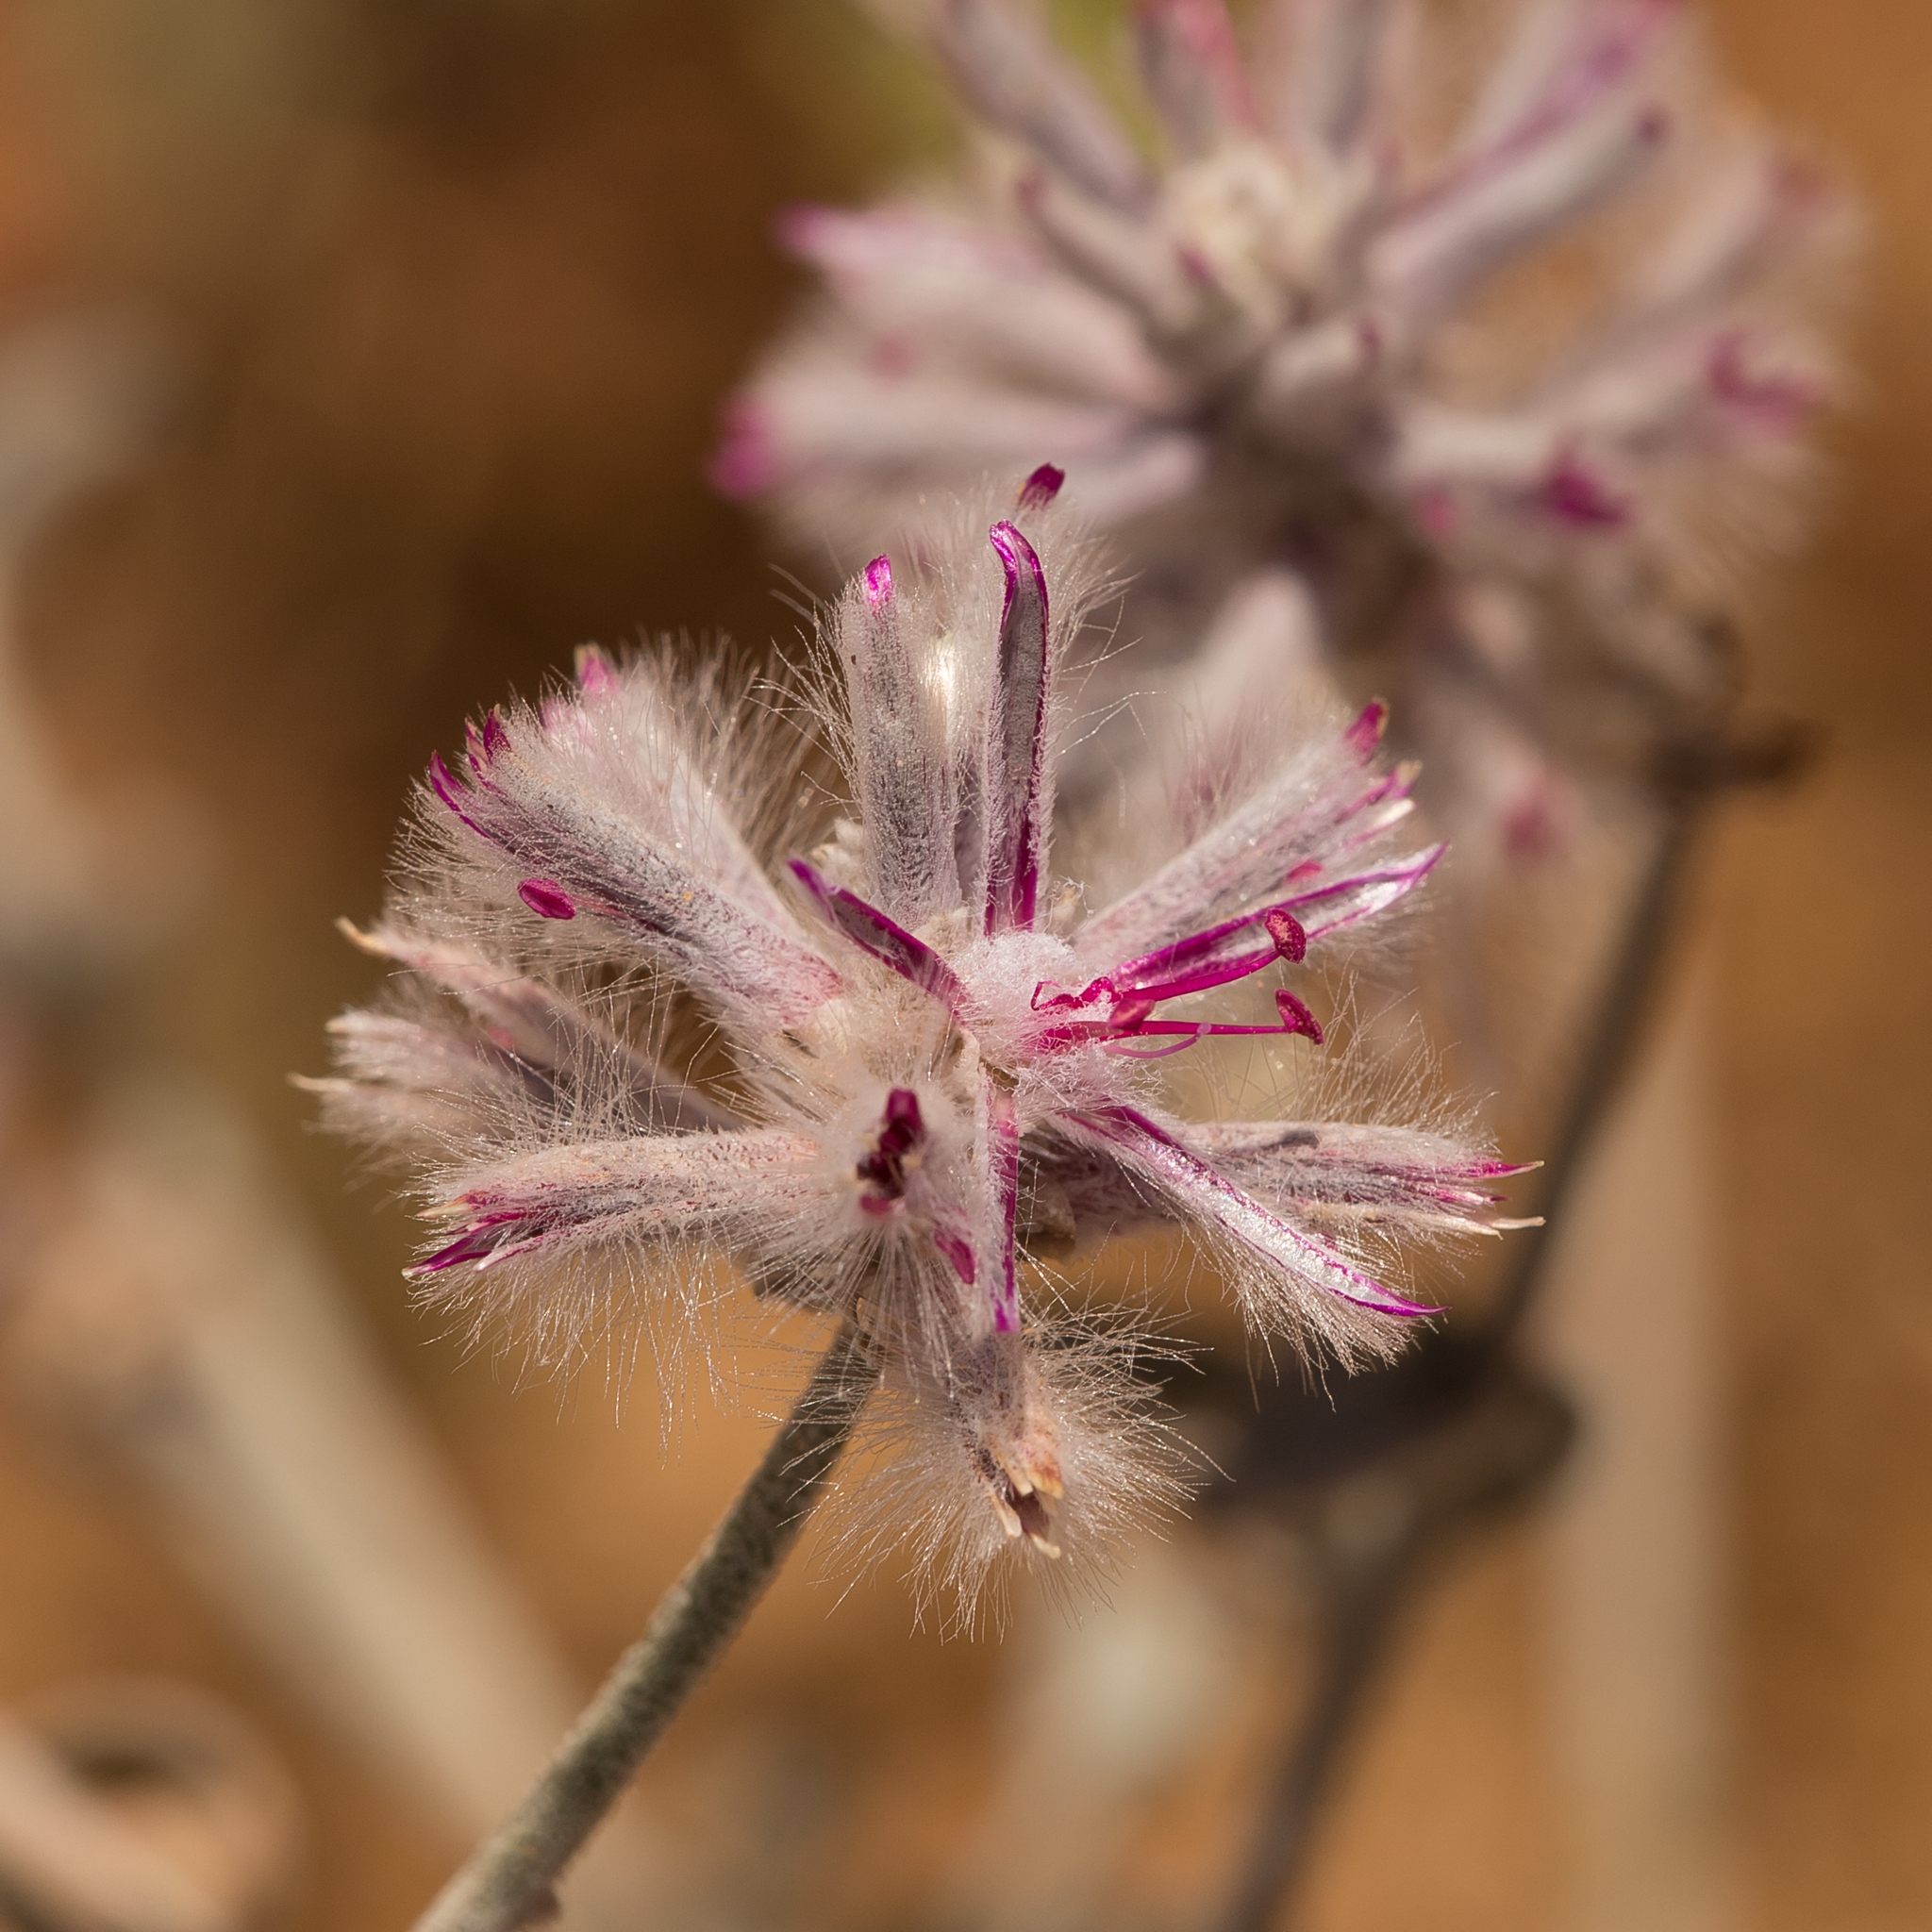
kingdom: Plantae
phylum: Tracheophyta
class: Magnoliopsida
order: Caryophyllales
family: Amaranthaceae
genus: Ptilotus
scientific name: Ptilotus sessilifolius
